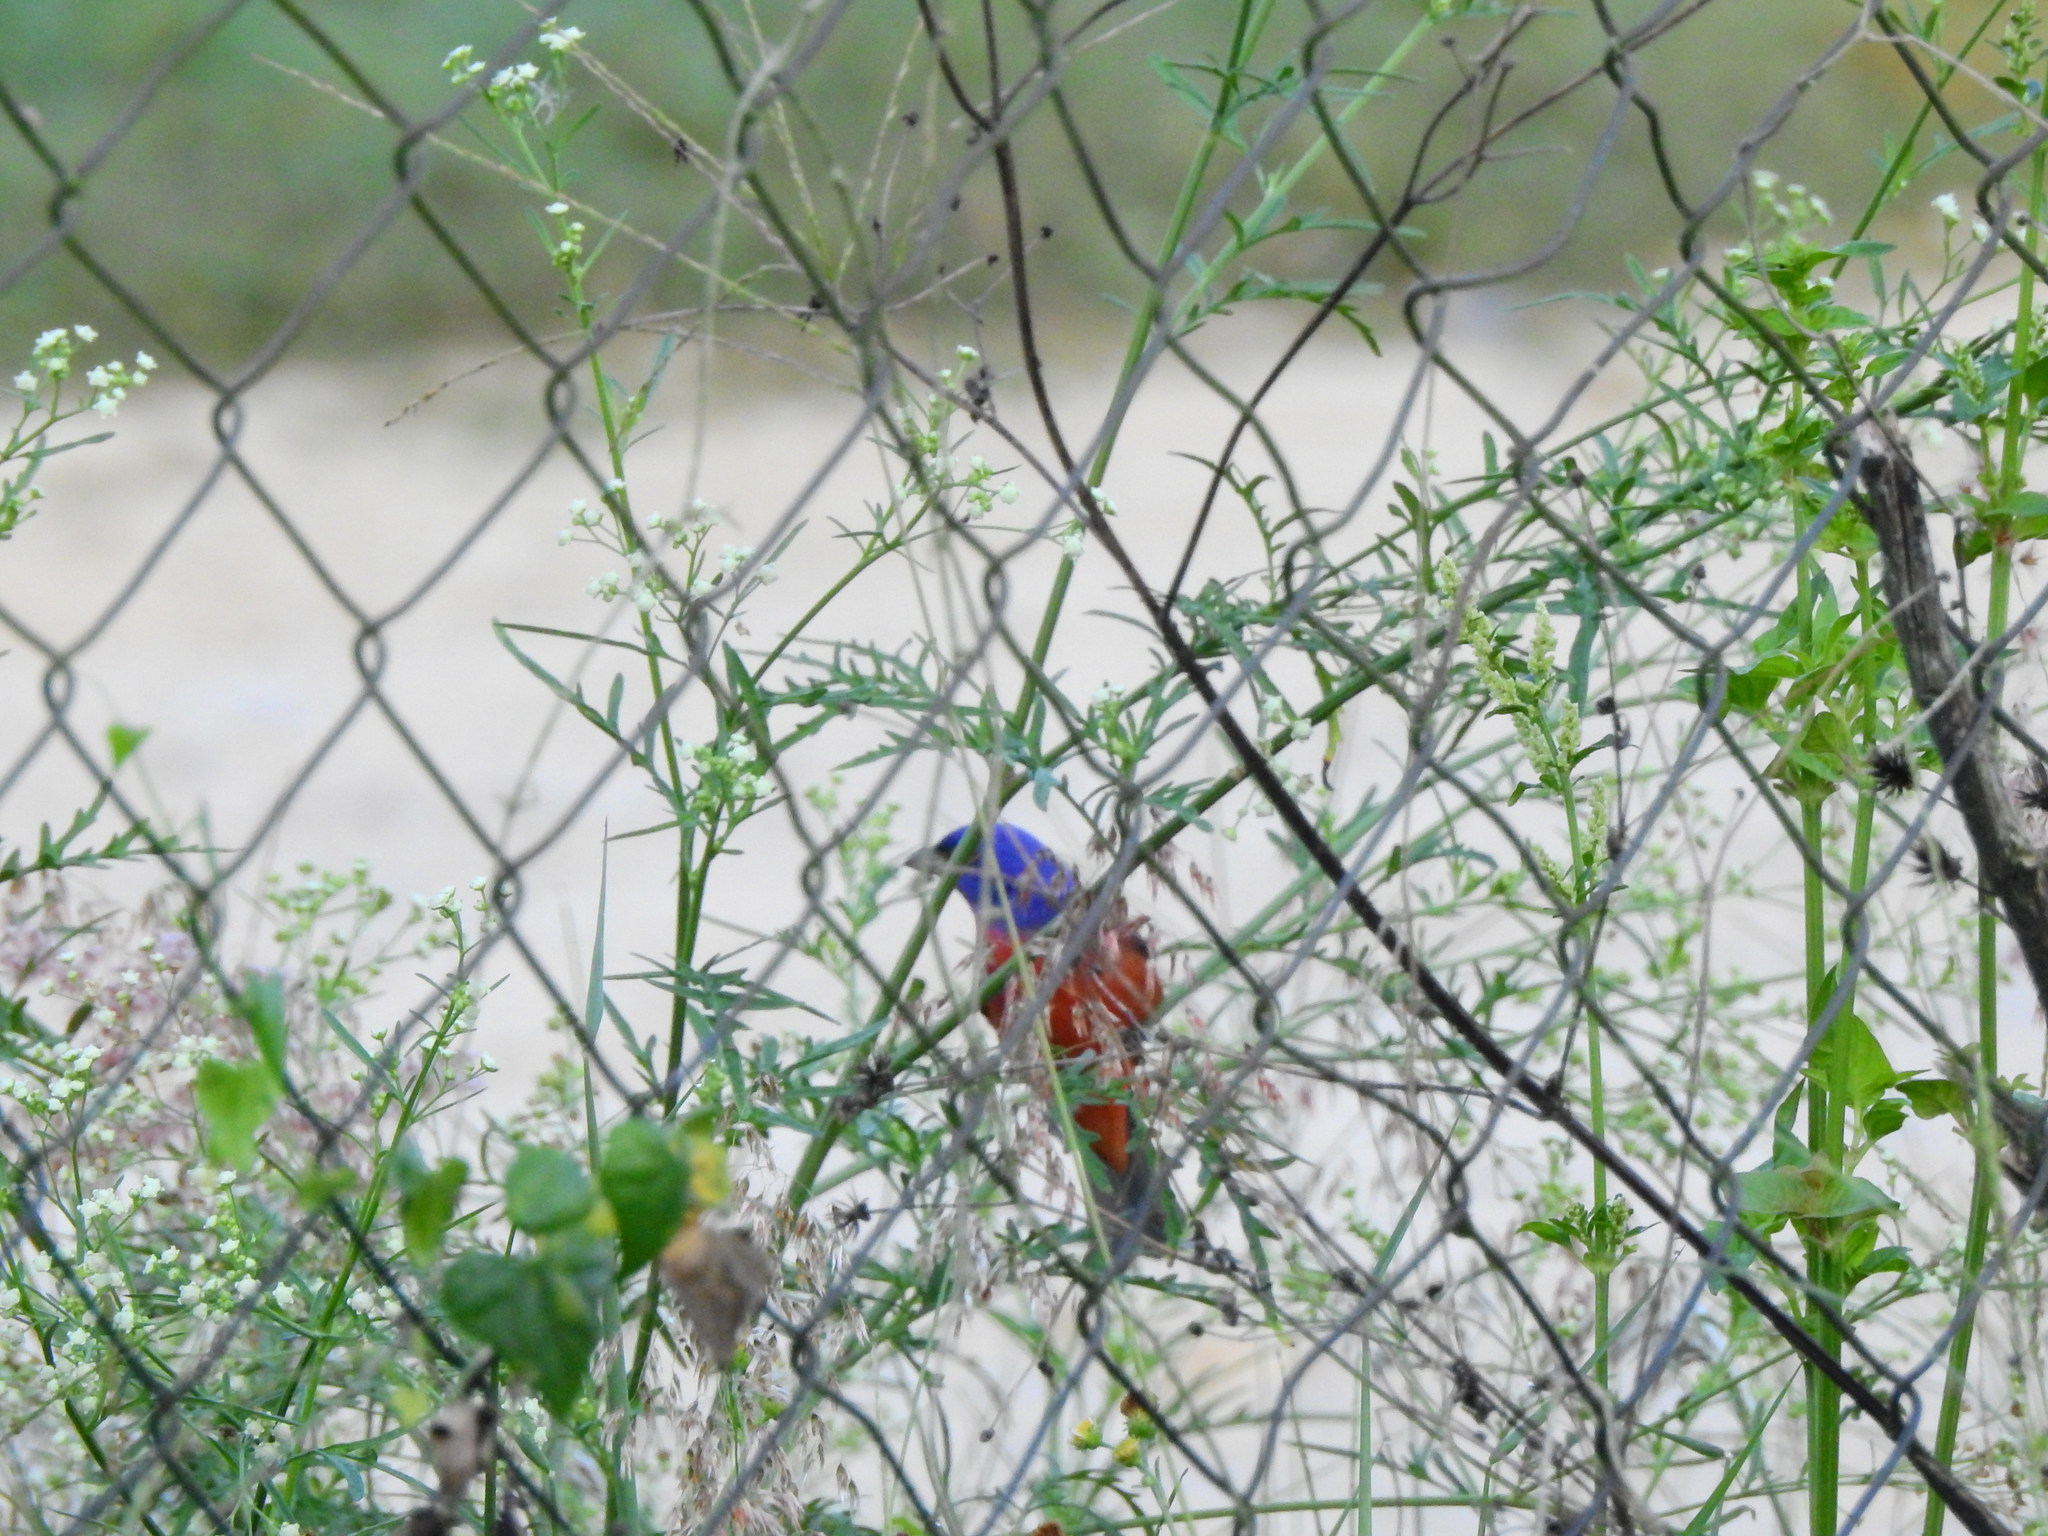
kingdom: Animalia
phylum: Chordata
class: Aves
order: Passeriformes
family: Cardinalidae
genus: Passerina
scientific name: Passerina ciris
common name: Painted bunting
